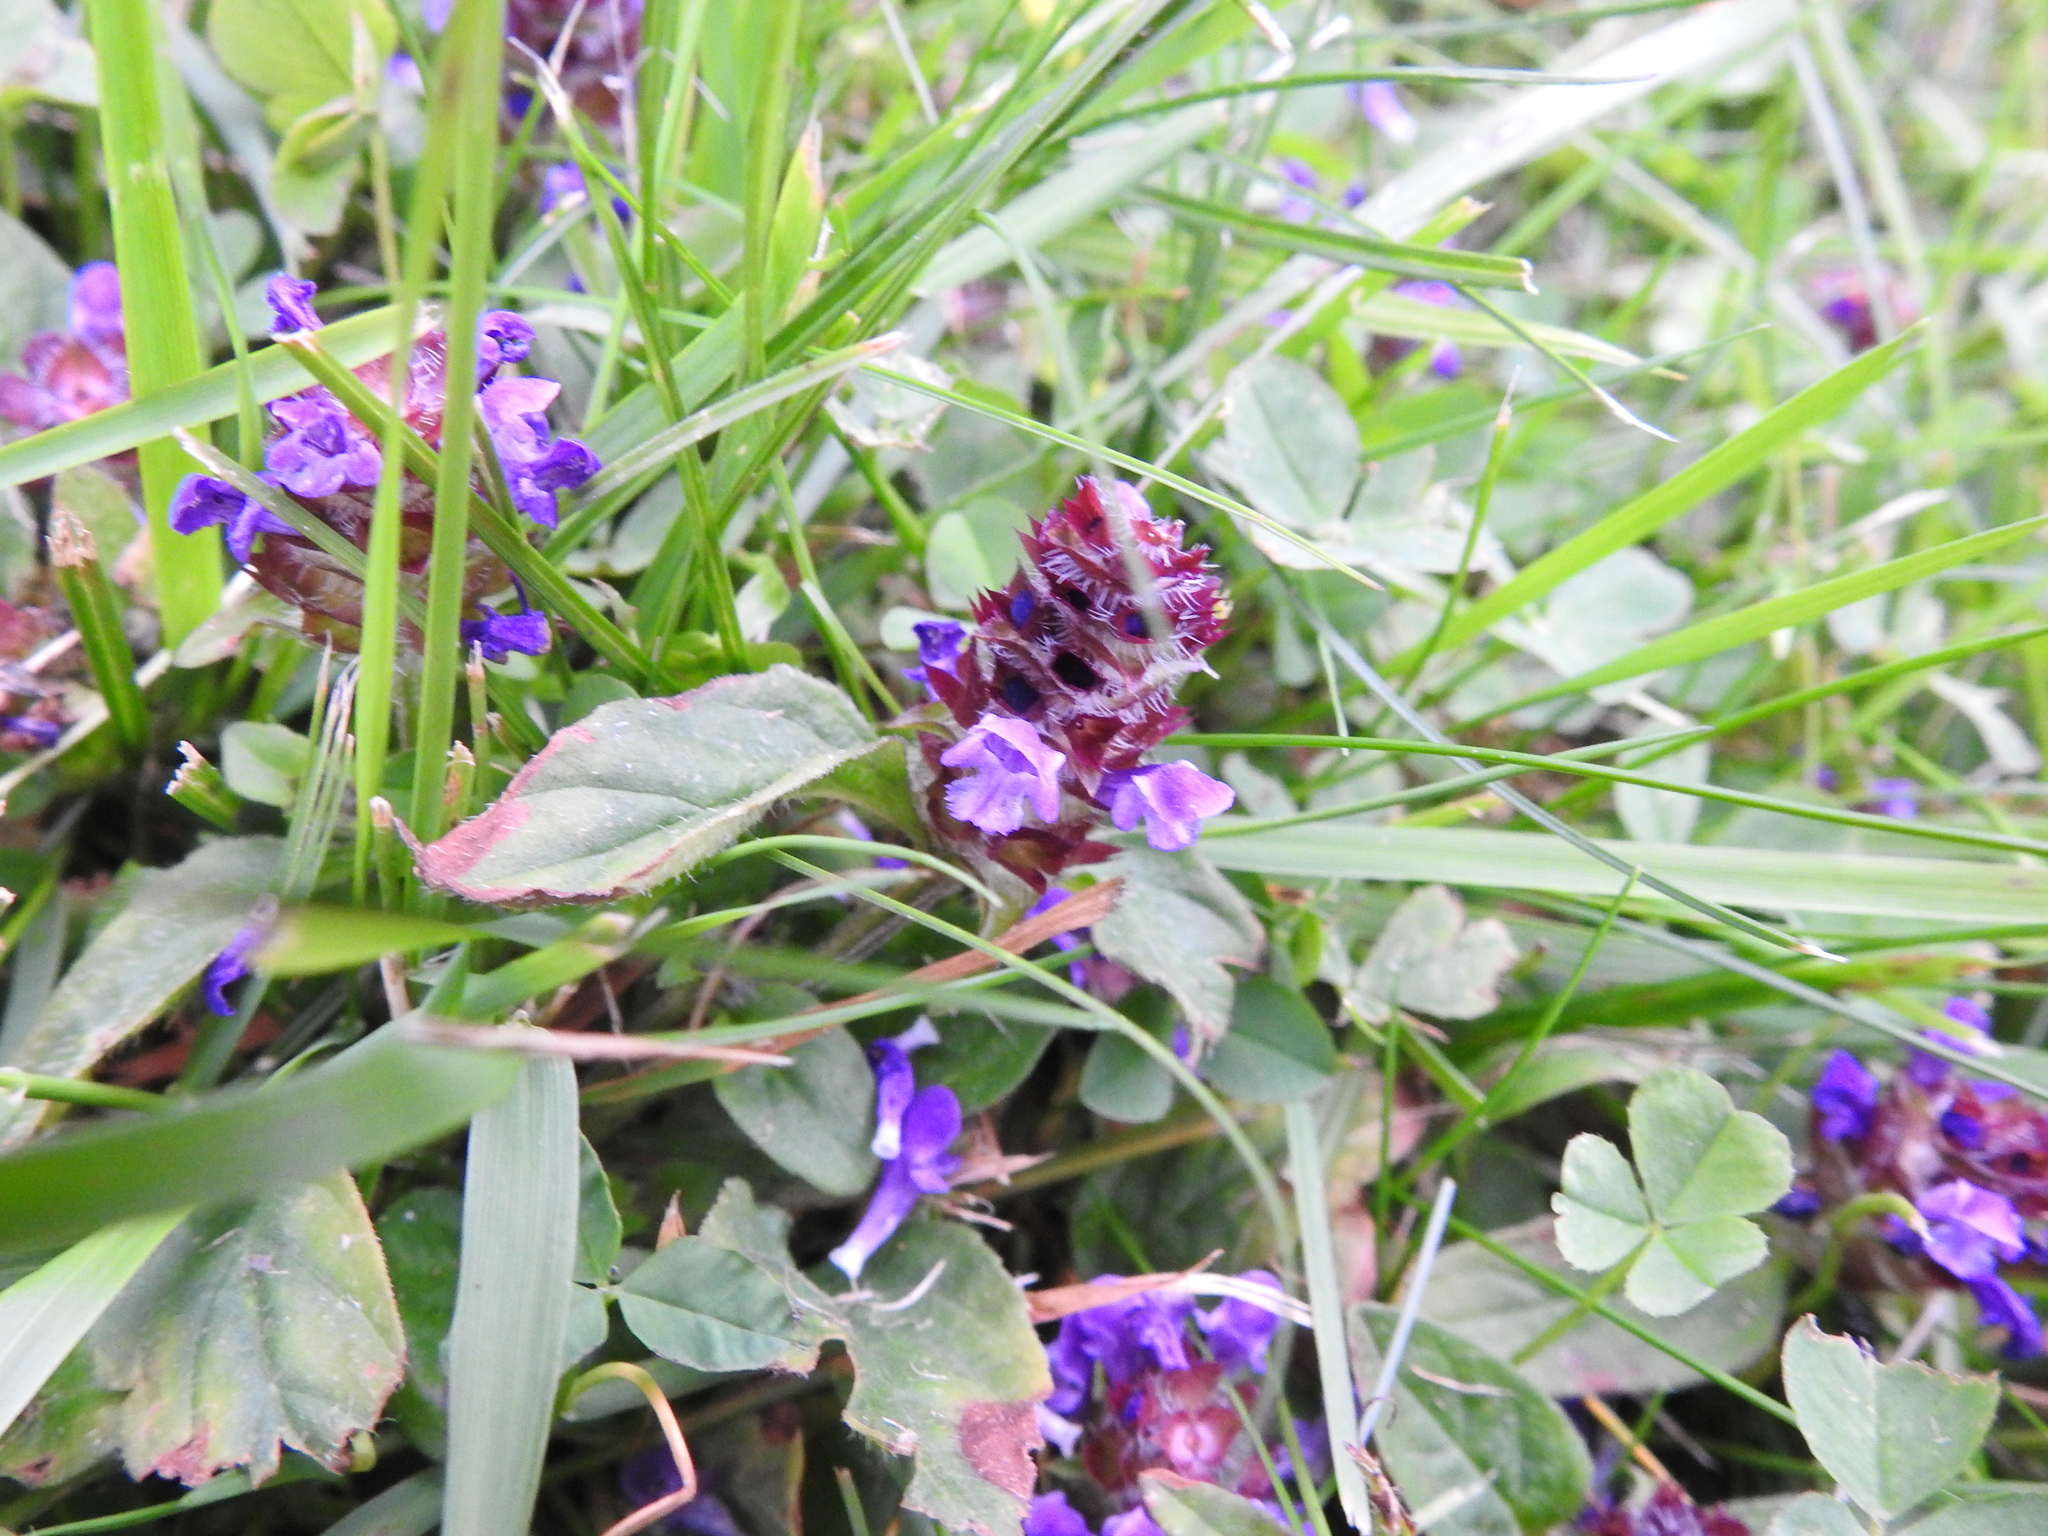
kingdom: Plantae
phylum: Tracheophyta
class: Magnoliopsida
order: Lamiales
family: Lamiaceae
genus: Prunella
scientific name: Prunella vulgaris
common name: Heal-all
